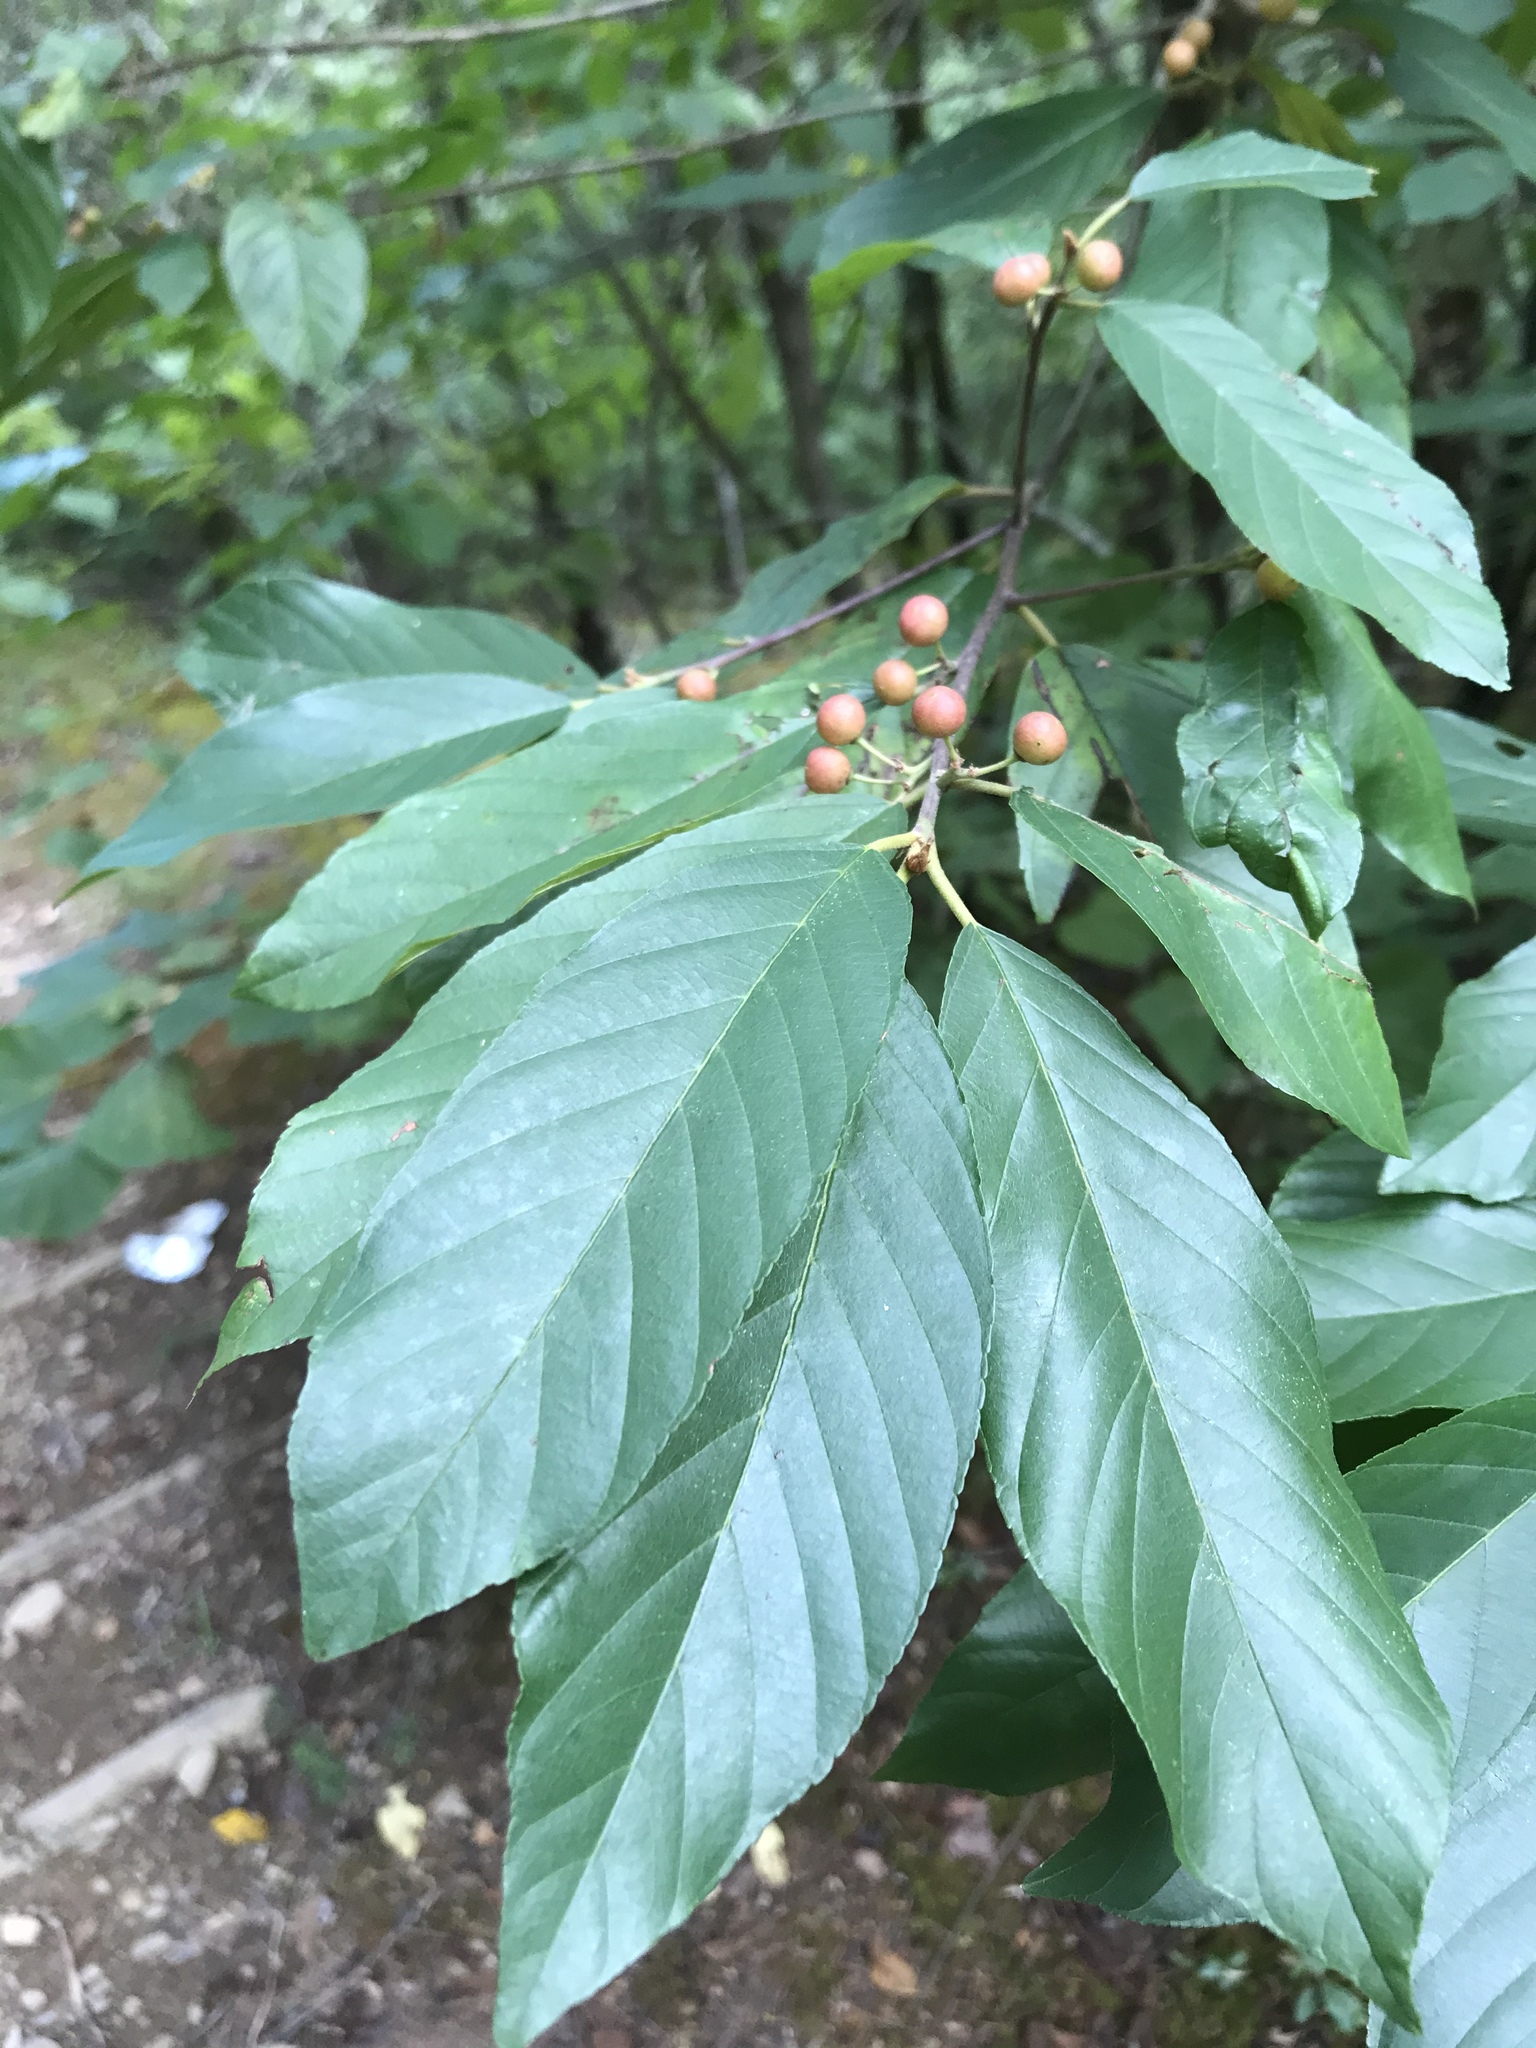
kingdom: Plantae
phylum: Tracheophyta
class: Magnoliopsida
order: Rosales
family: Rhamnaceae
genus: Frangula
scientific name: Frangula caroliniana
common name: Carolina buckthorn
